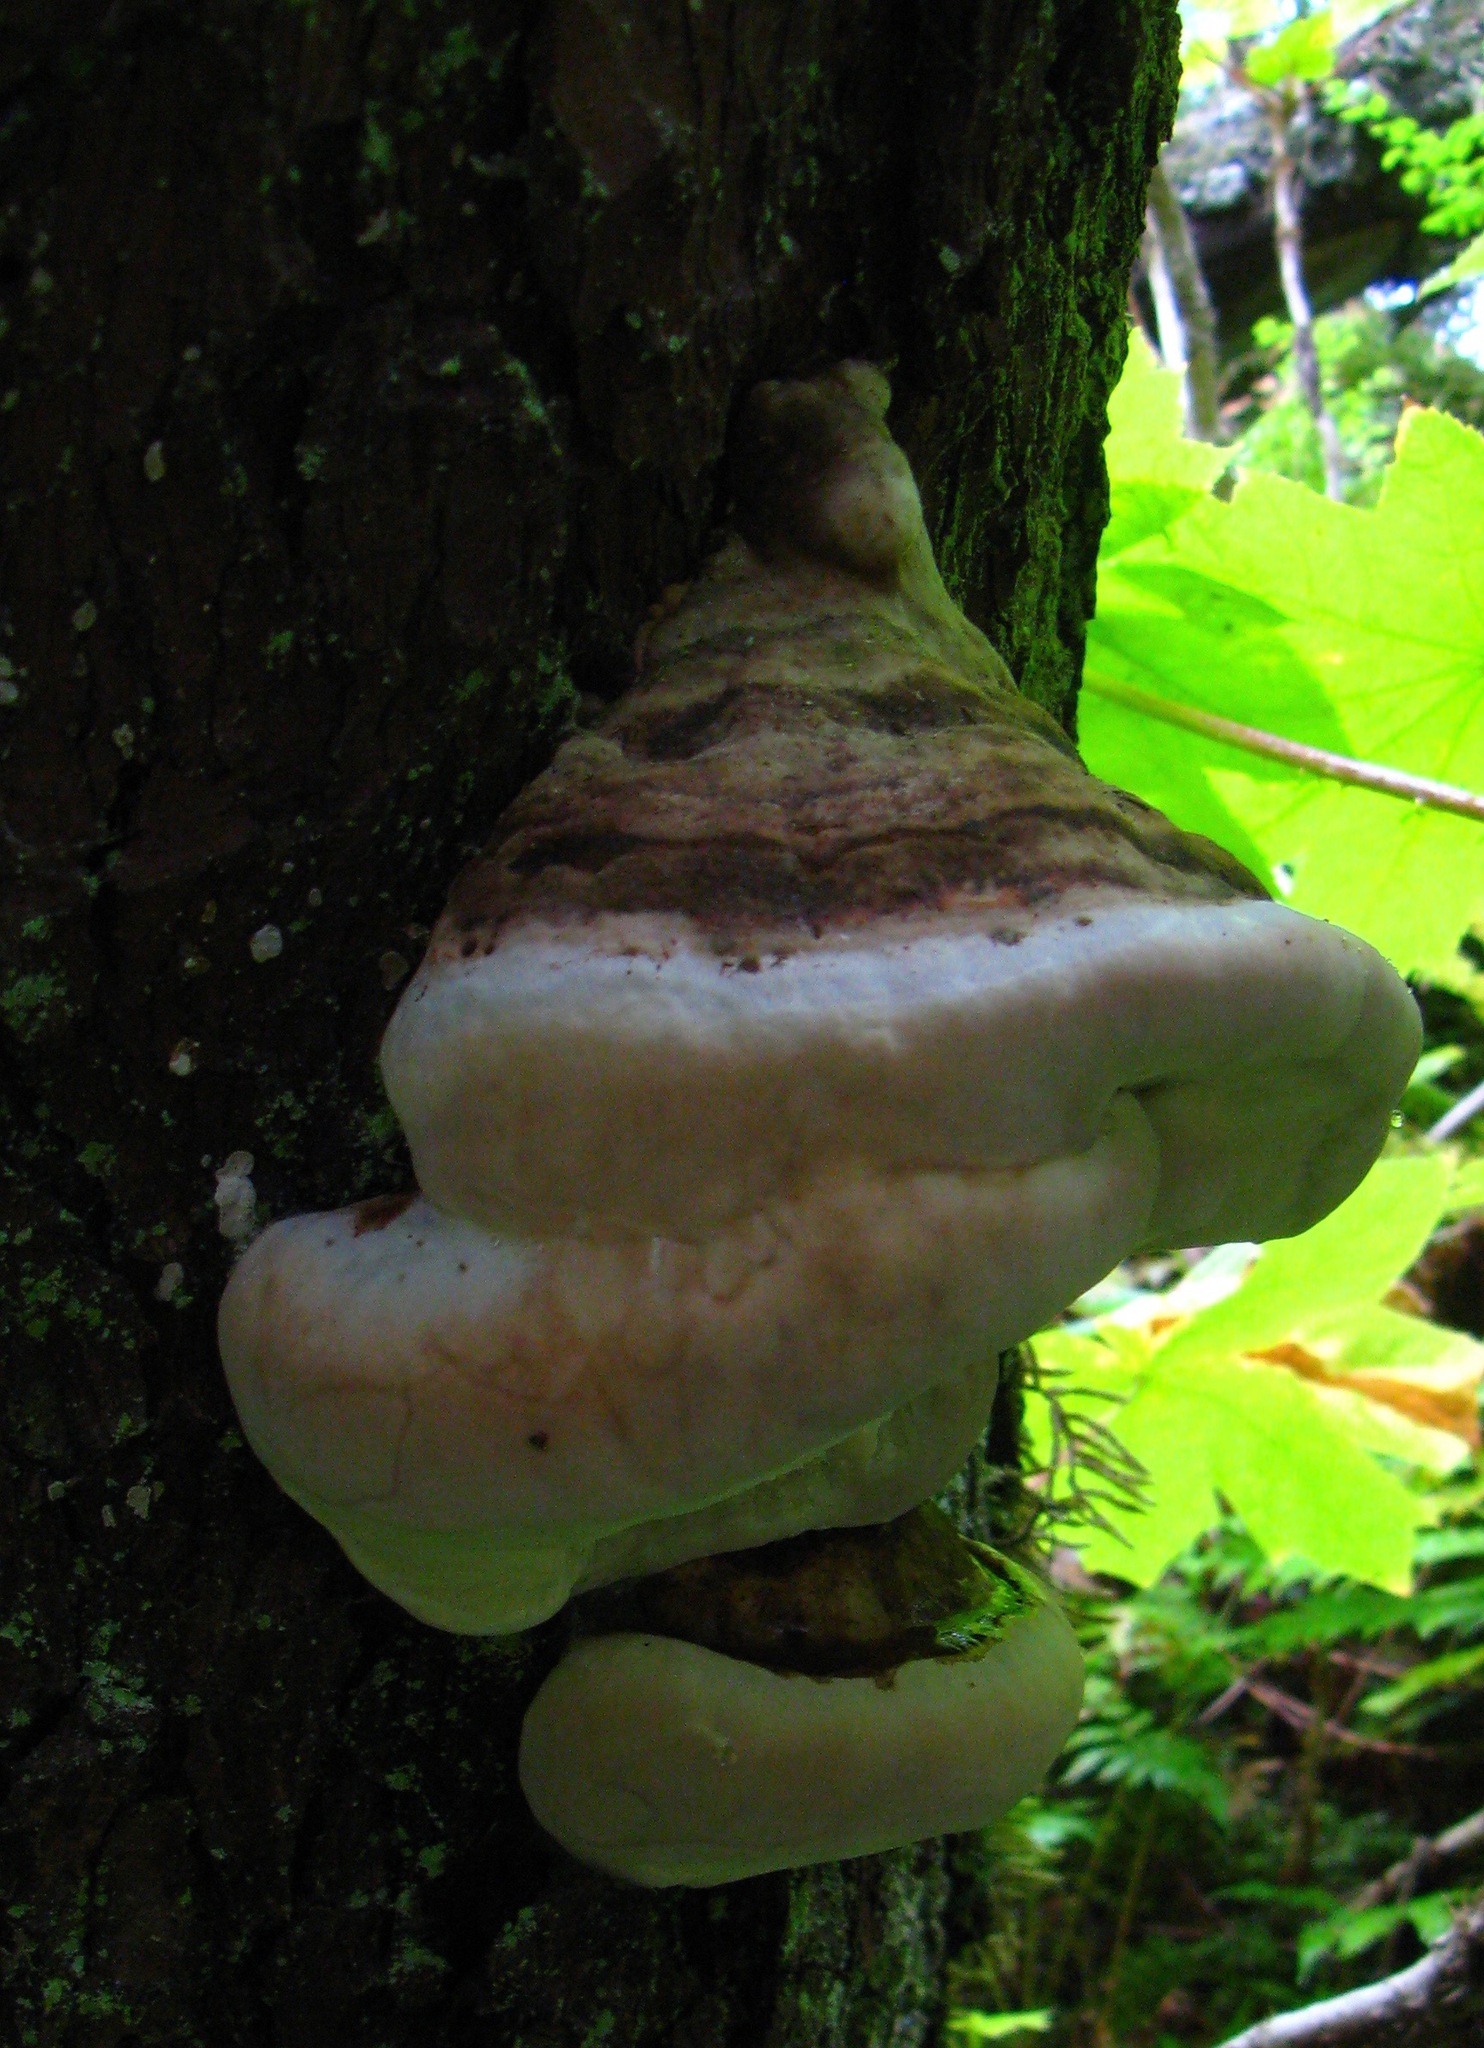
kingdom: Fungi
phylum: Basidiomycota
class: Agaricomycetes
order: Polyporales
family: Fomitopsidaceae
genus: Fomitopsis
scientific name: Fomitopsis ochracea
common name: American brown fomitopsis
